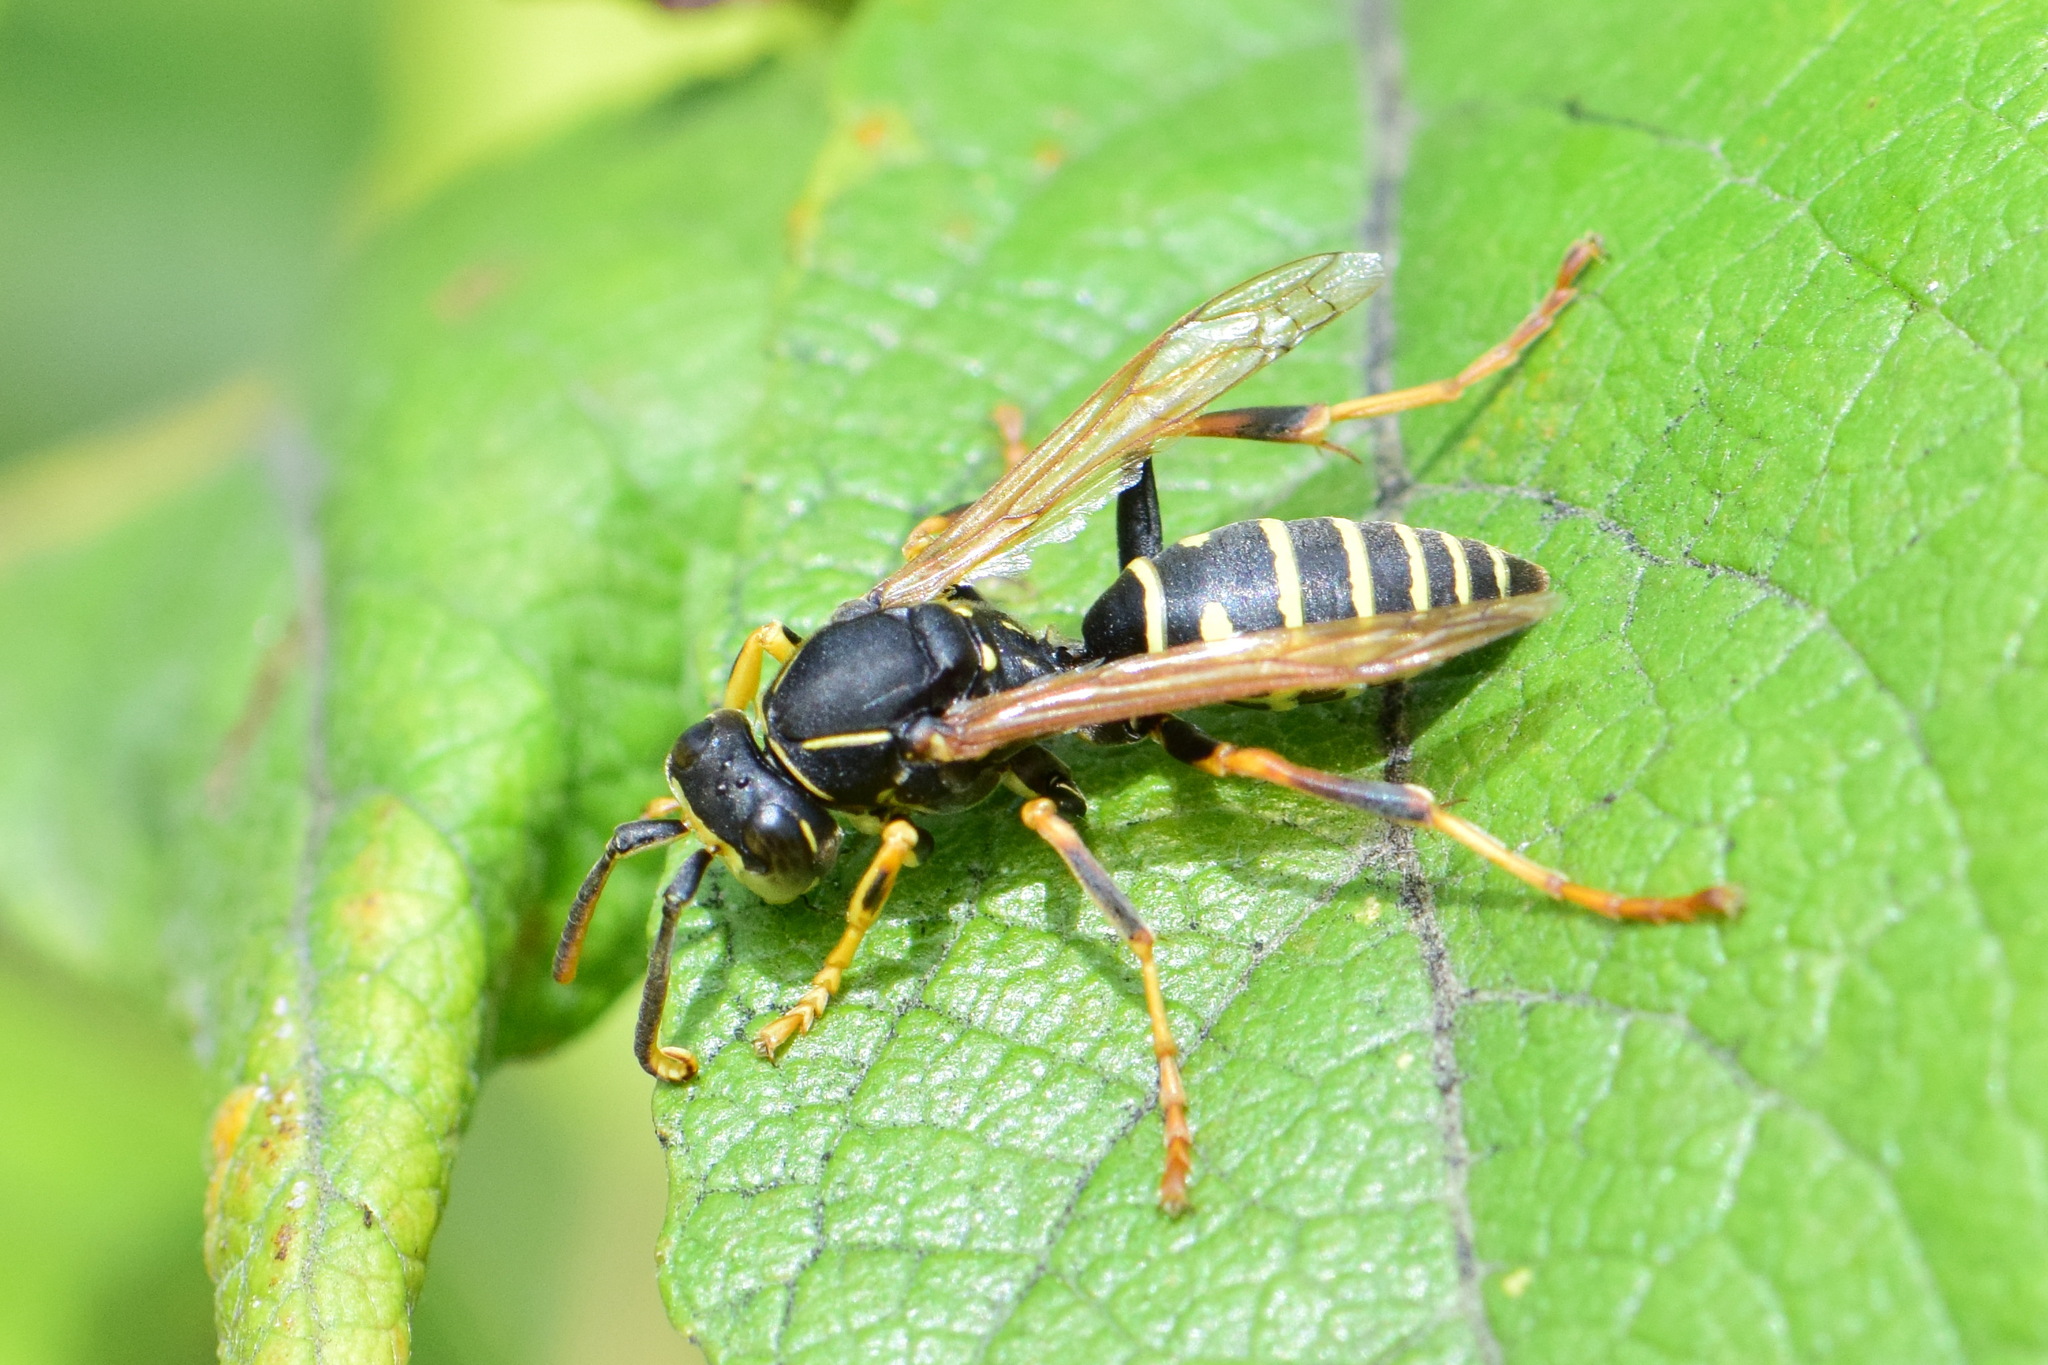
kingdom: Animalia
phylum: Arthropoda
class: Insecta
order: Hymenoptera
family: Eumenidae
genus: Polistes
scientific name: Polistes riparius
